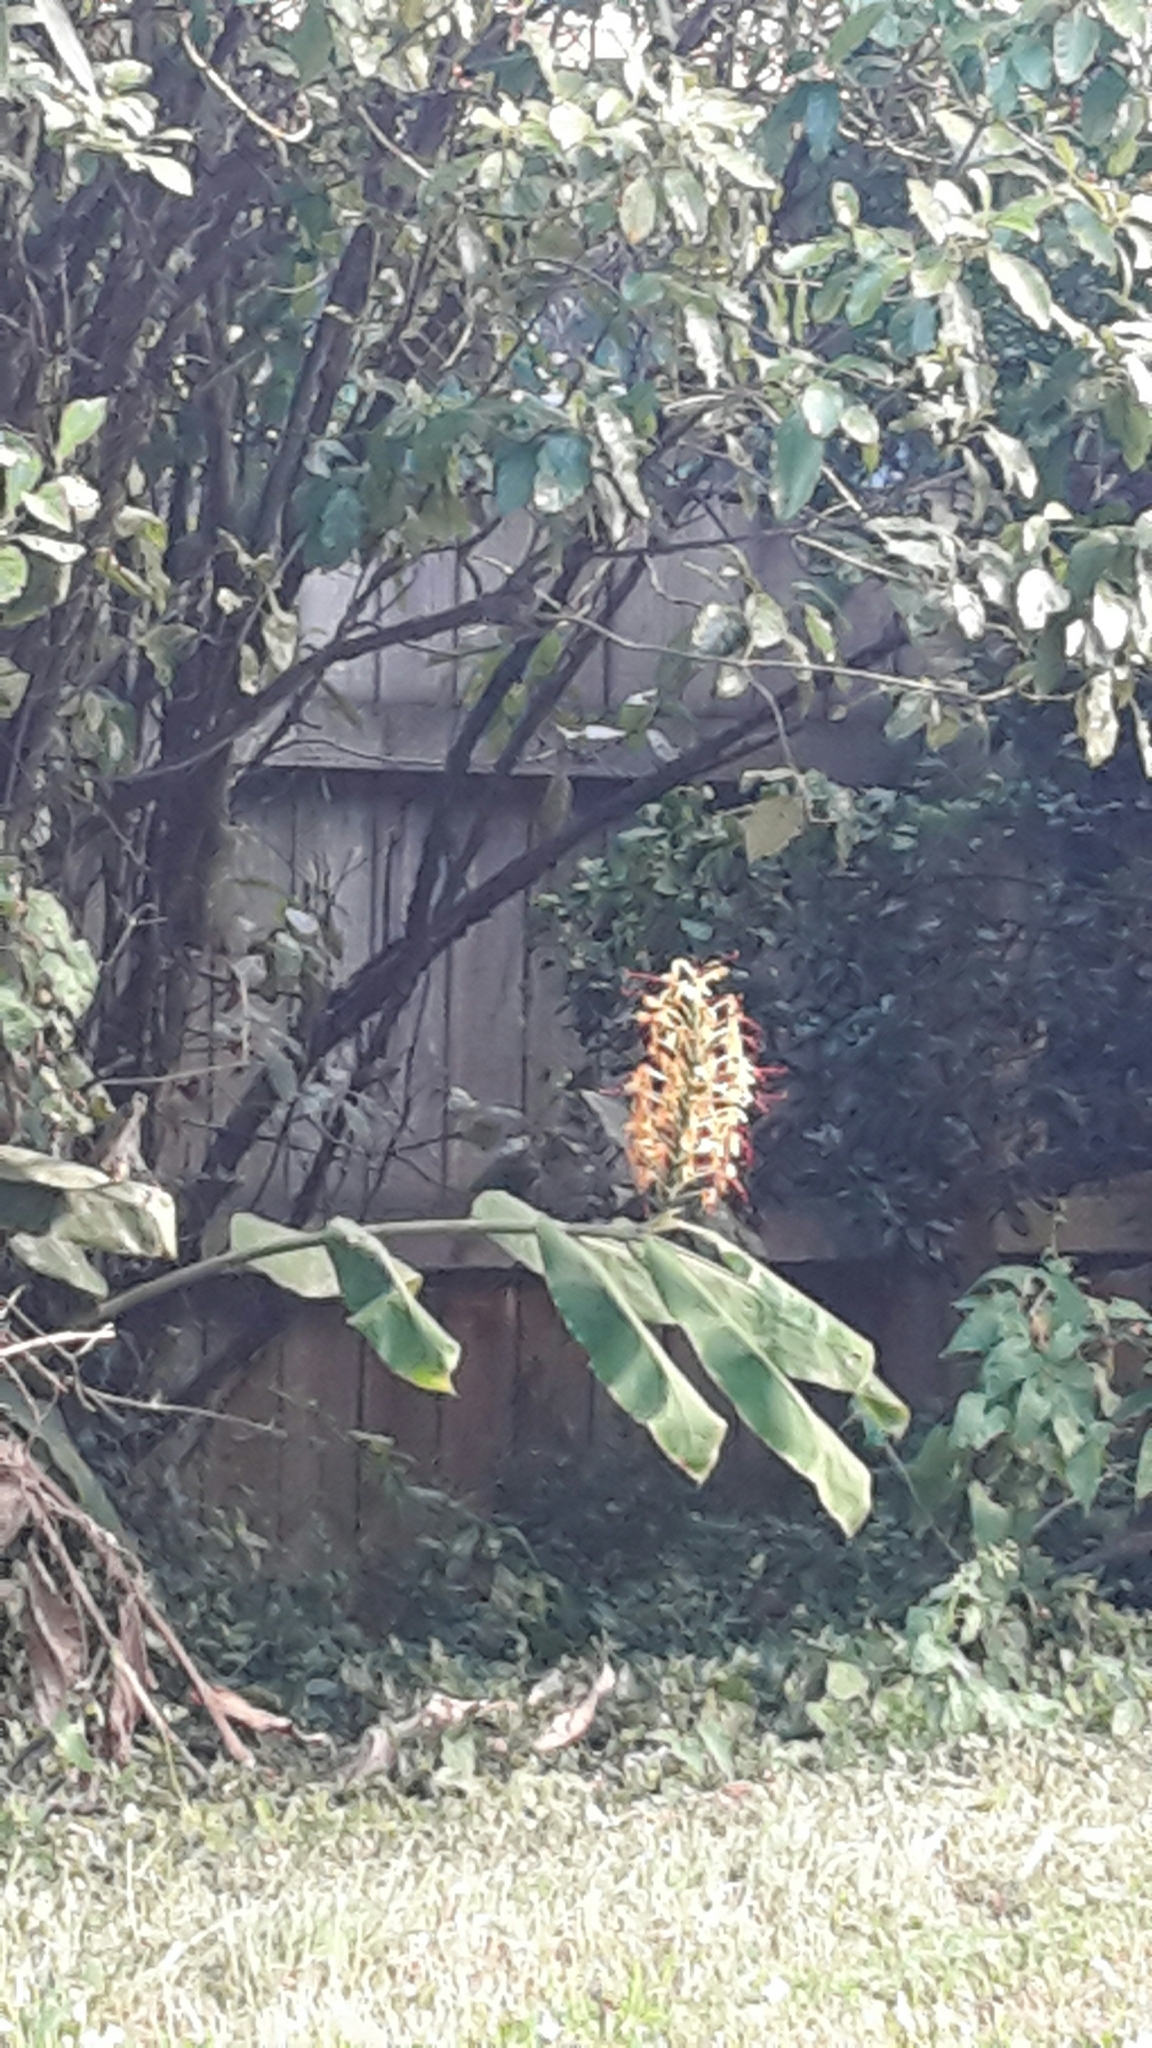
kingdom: Plantae
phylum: Tracheophyta
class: Liliopsida
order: Zingiberales
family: Zingiberaceae
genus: Hedychium
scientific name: Hedychium gardnerianum
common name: Himalayan ginger
